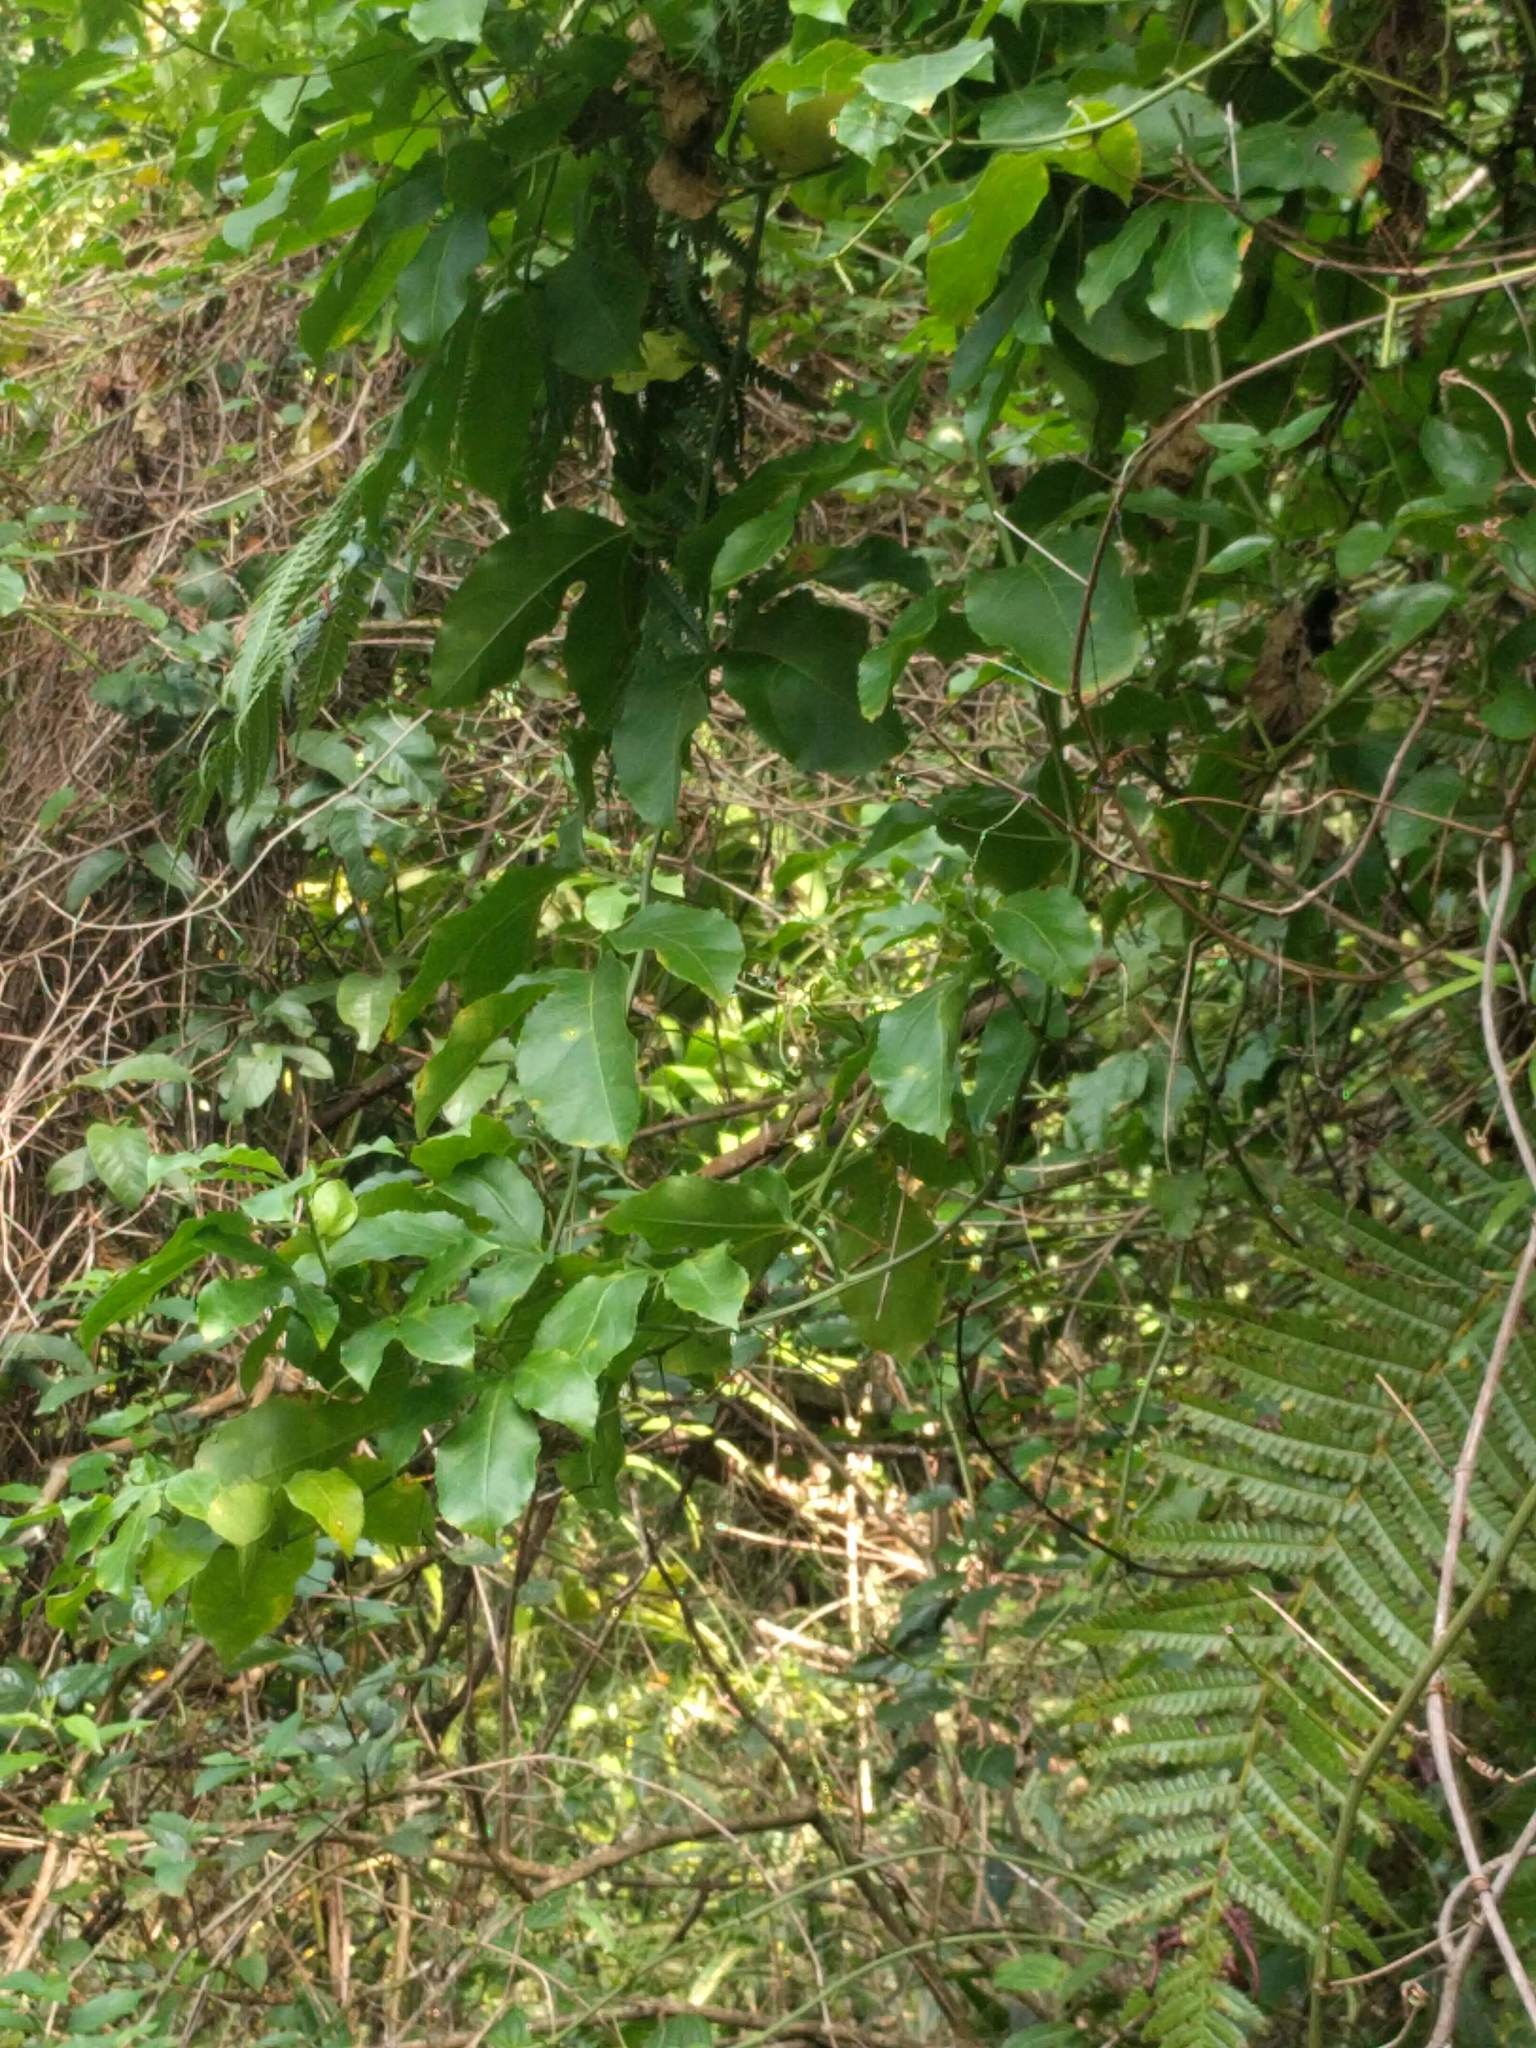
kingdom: Plantae
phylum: Tracheophyta
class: Magnoliopsida
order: Malpighiales
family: Passifloraceae
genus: Passiflora
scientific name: Passiflora edulis
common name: Purple granadilla
